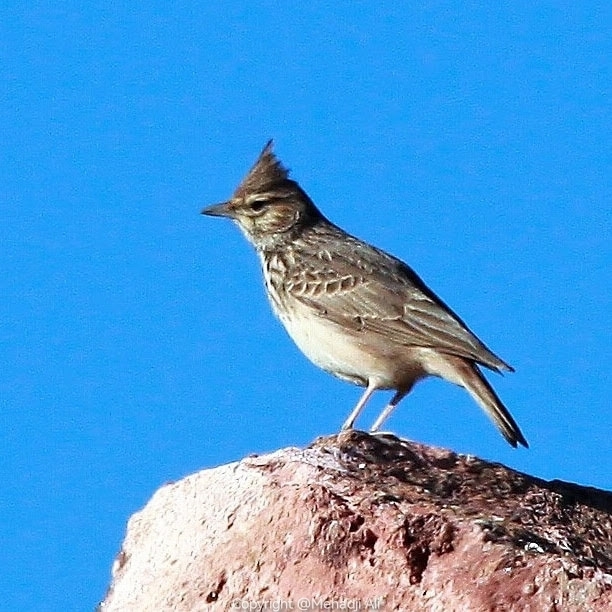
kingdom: Animalia
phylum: Chordata
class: Aves
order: Passeriformes
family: Alaudidae
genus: Galerida
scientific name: Galerida theklae
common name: Thekla lark
